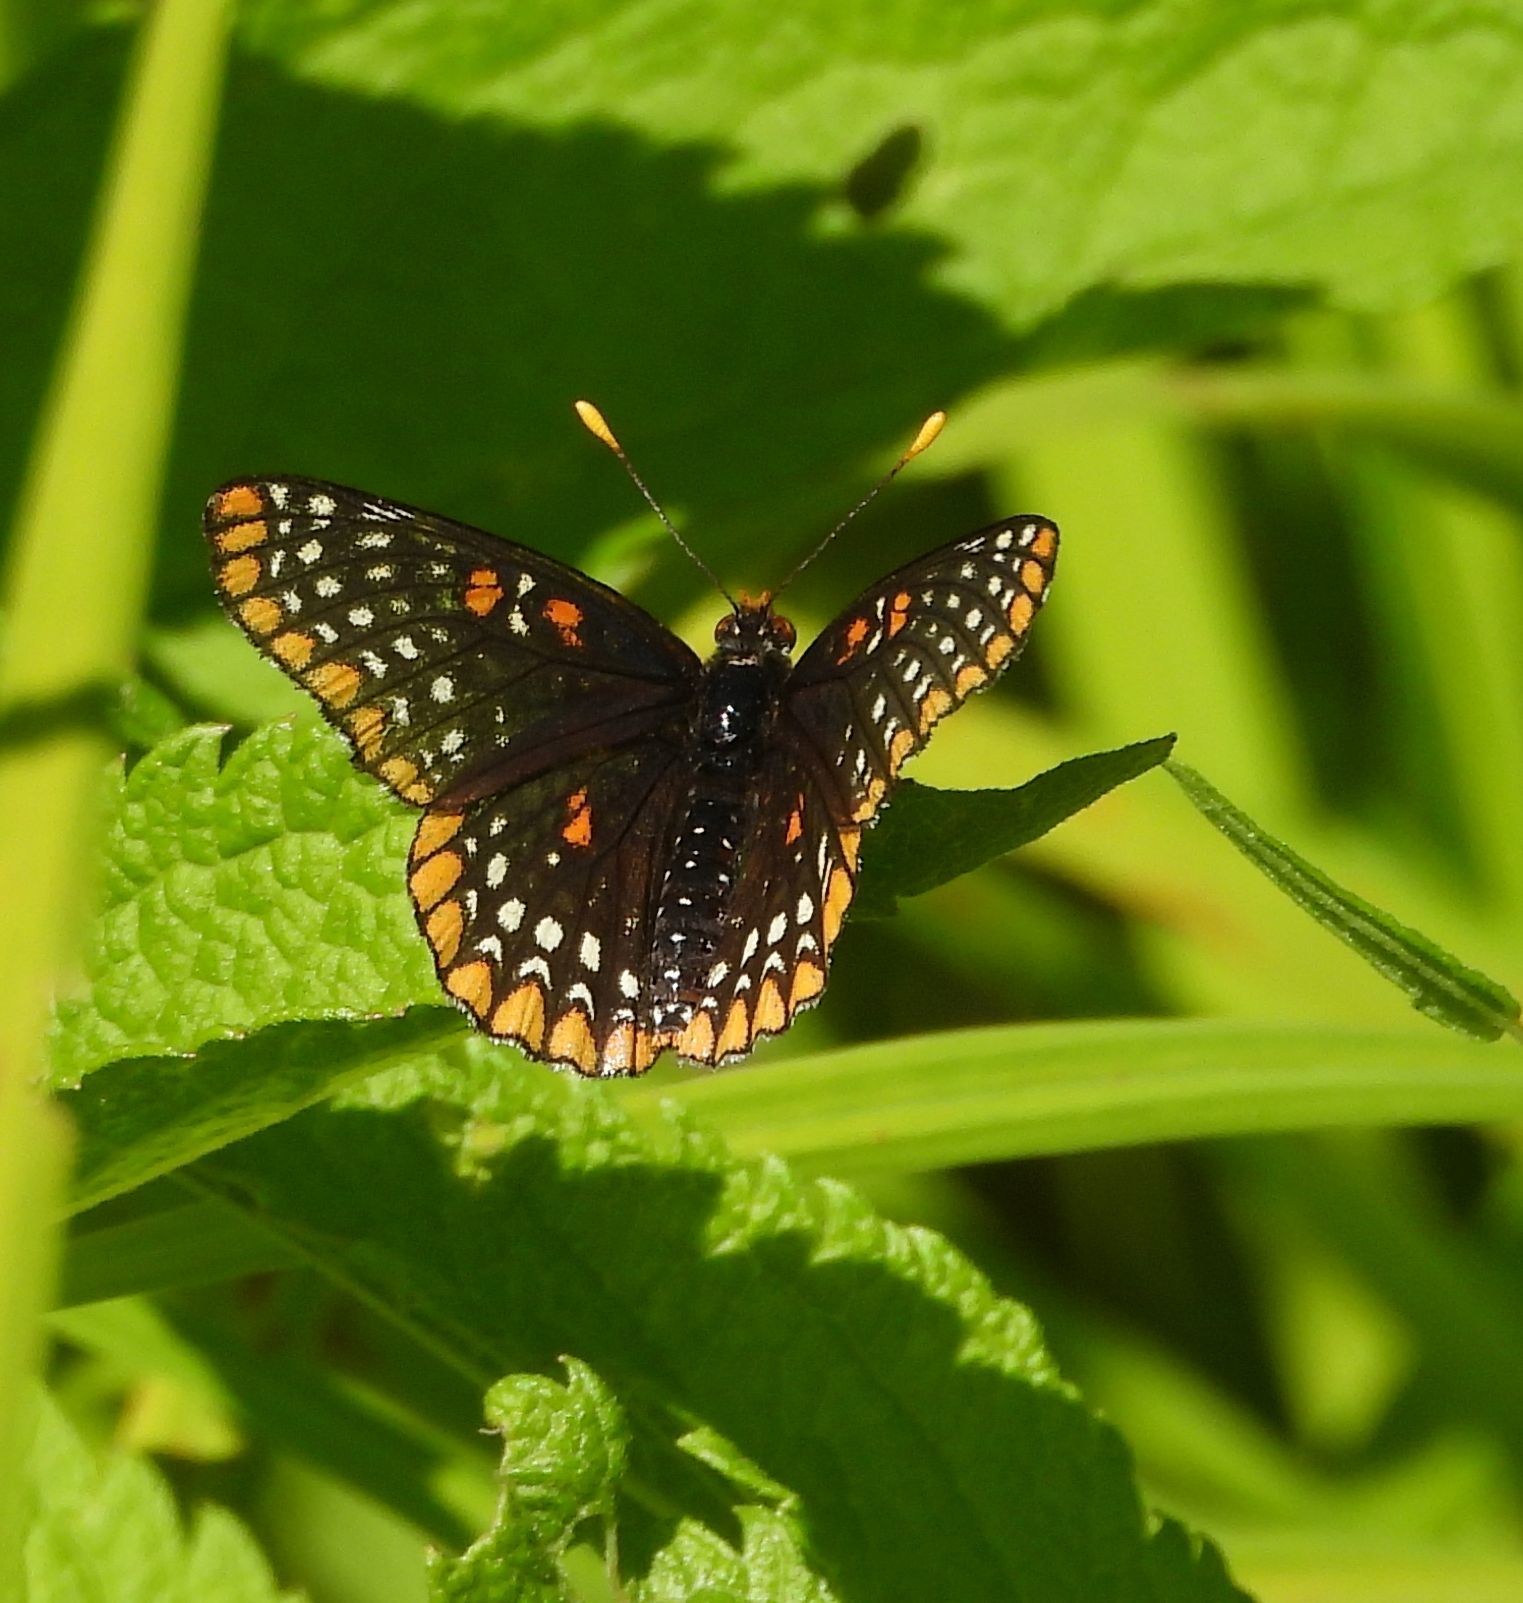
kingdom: Animalia
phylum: Arthropoda
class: Insecta
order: Lepidoptera
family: Nymphalidae
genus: Euphydryas
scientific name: Euphydryas phaeton
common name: Baltimore checkerspot
